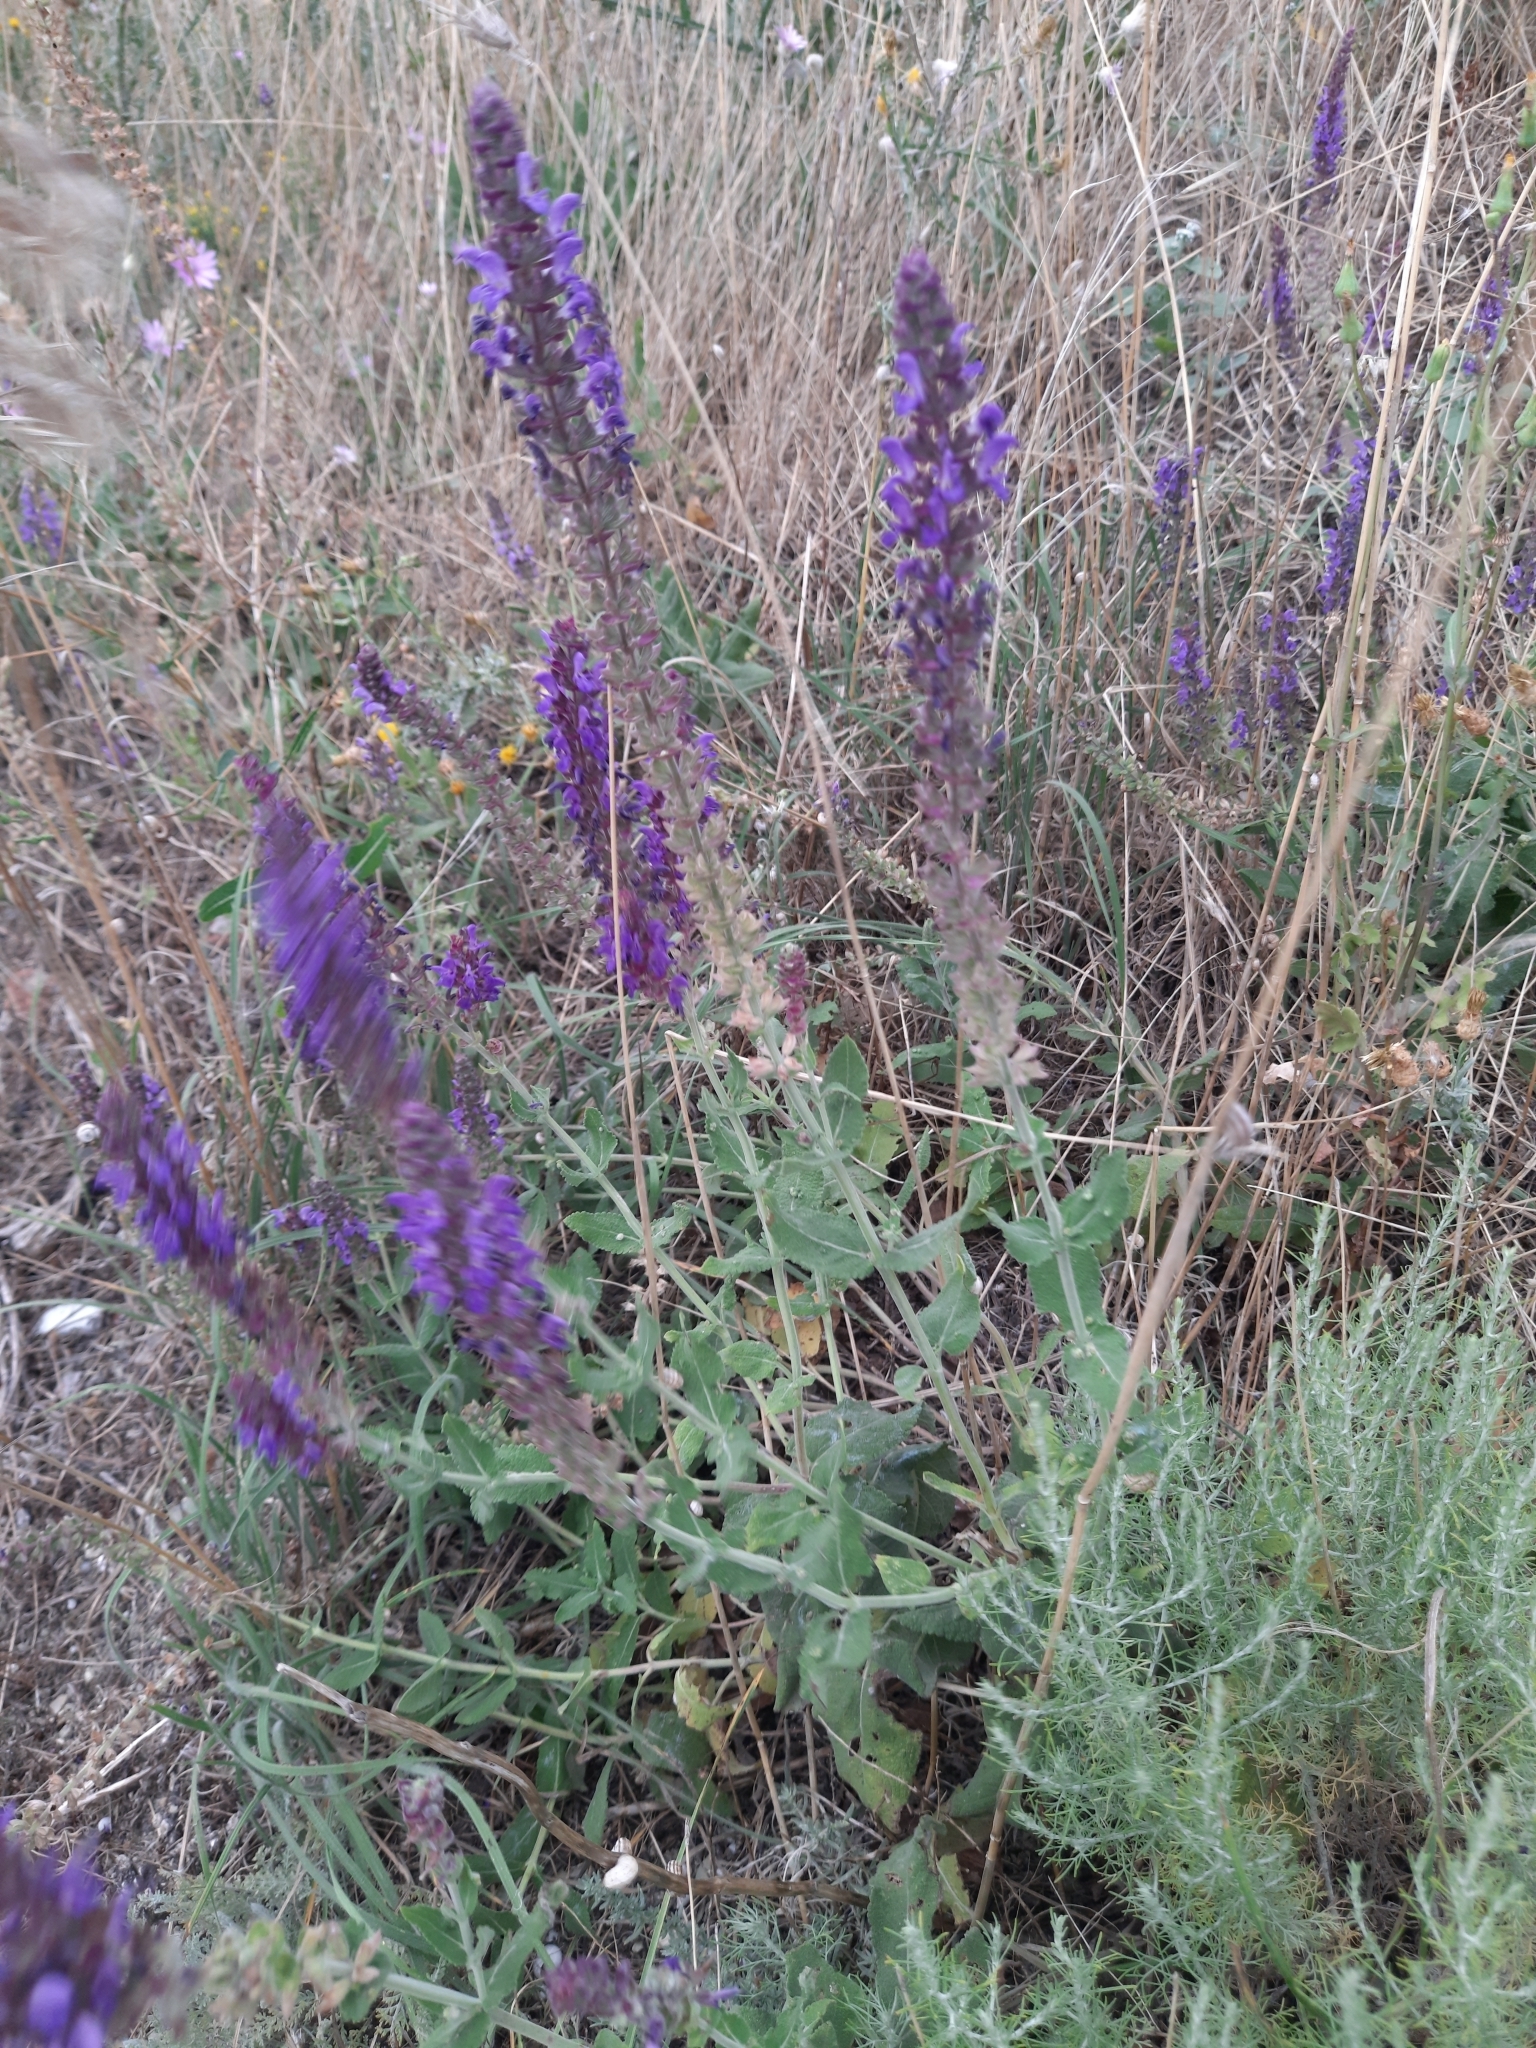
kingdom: Plantae
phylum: Tracheophyta
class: Magnoliopsida
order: Lamiales
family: Lamiaceae
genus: Salvia
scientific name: Salvia nemorosa
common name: Balkan clary
